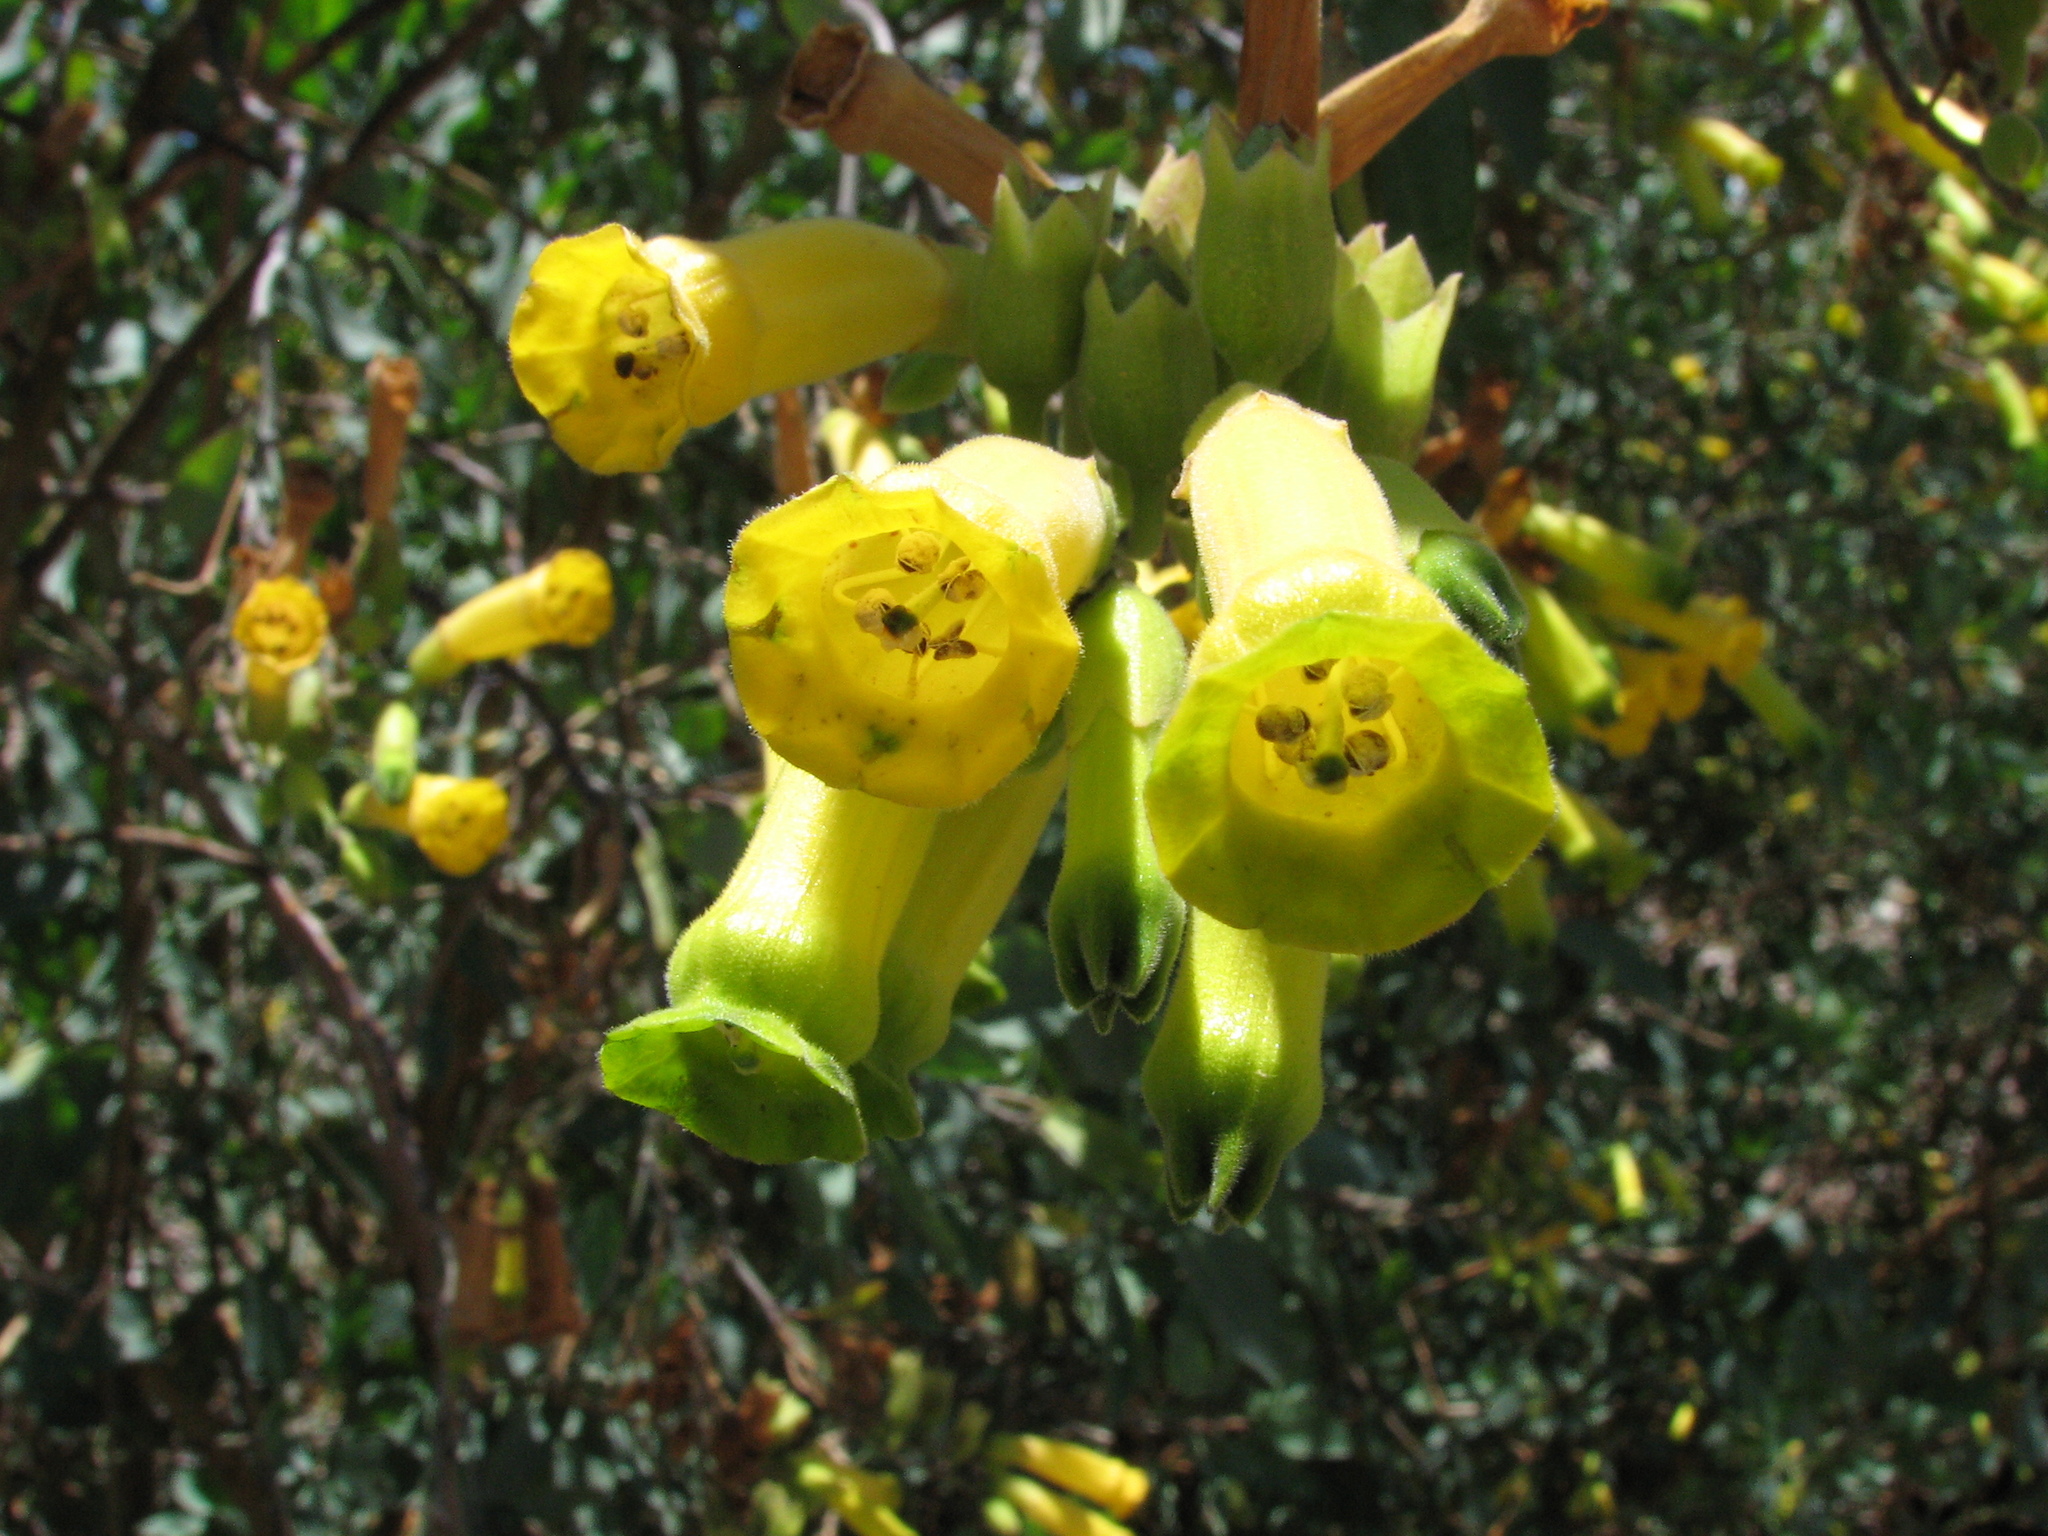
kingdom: Plantae
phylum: Tracheophyta
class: Magnoliopsida
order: Solanales
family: Solanaceae
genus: Nicotiana
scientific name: Nicotiana glauca
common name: Tree tobacco
